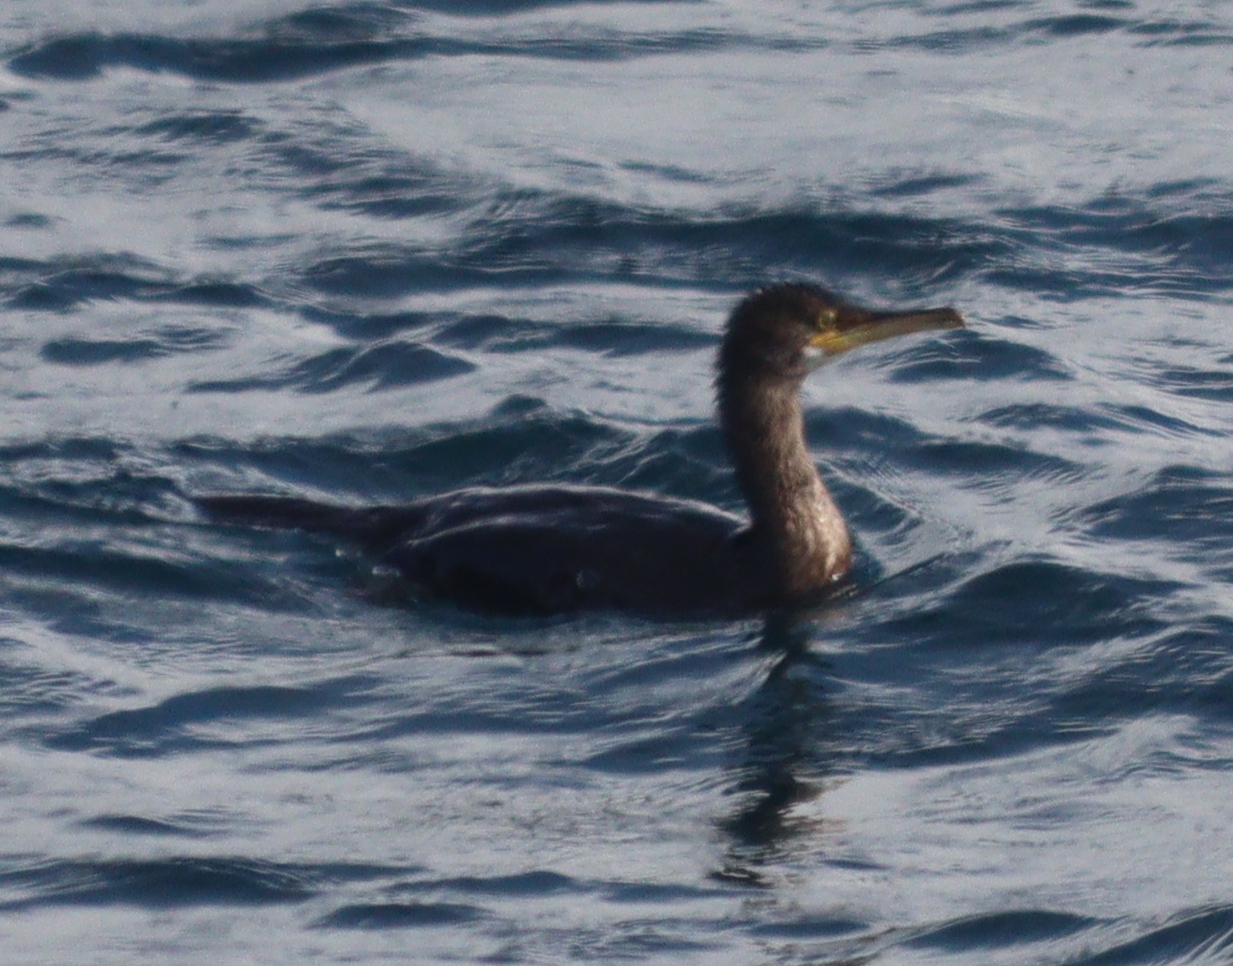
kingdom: Animalia
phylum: Chordata
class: Aves
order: Suliformes
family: Phalacrocoracidae
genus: Phalacrocorax
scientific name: Phalacrocorax aristotelis
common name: European shag
